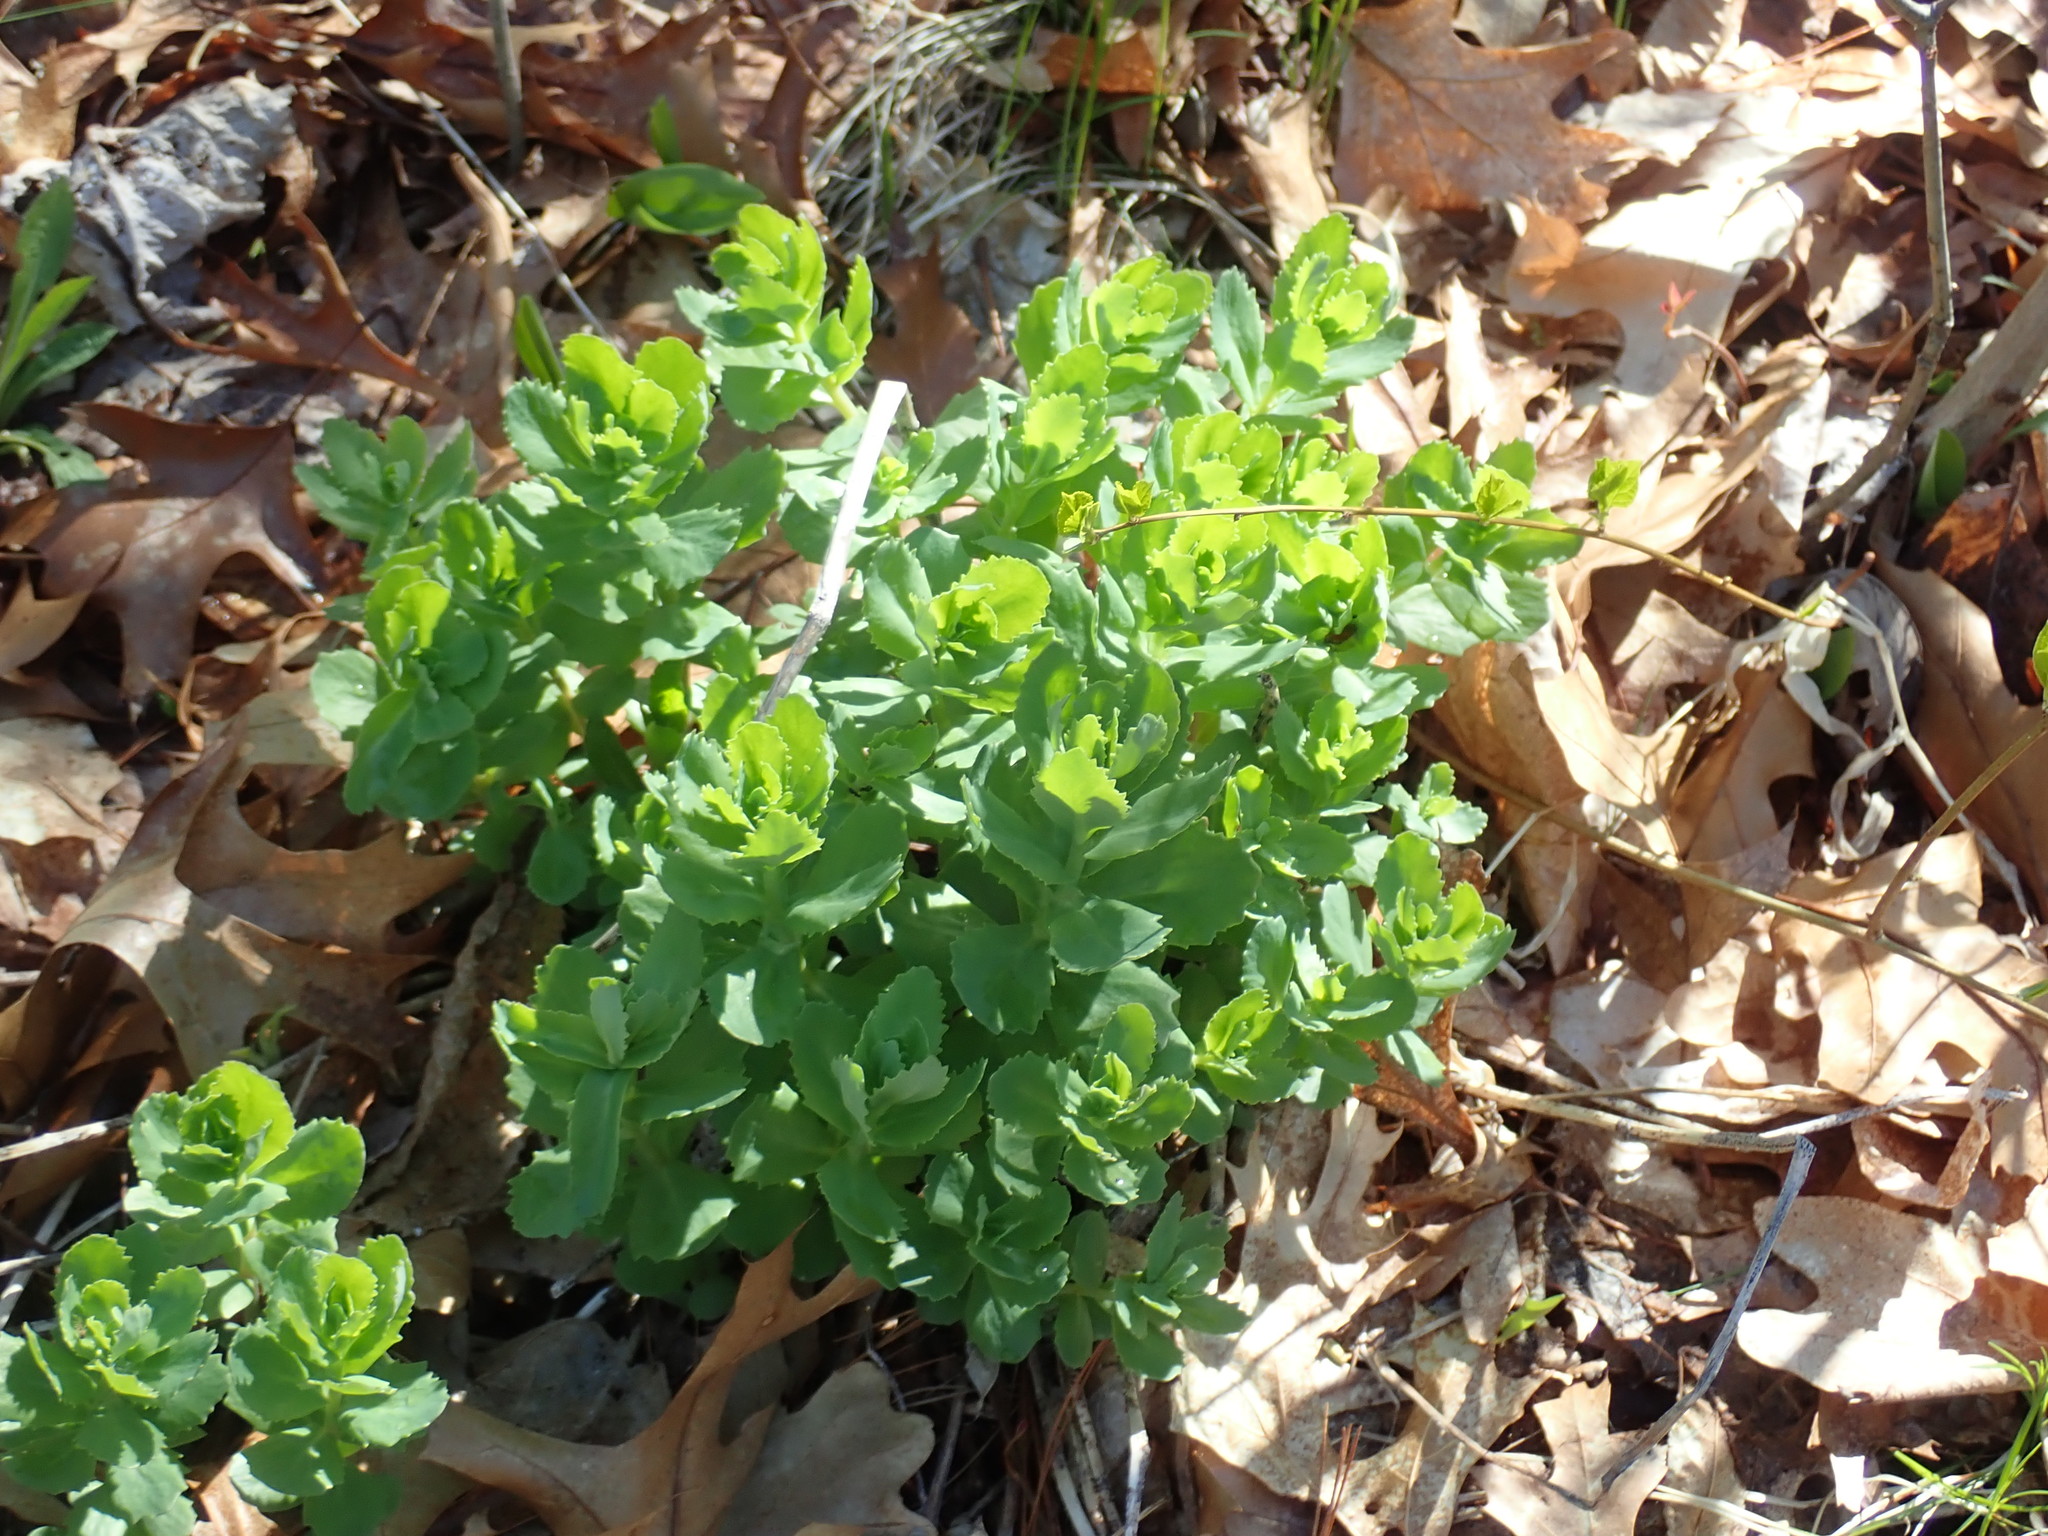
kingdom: Plantae
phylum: Tracheophyta
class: Magnoliopsida
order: Saxifragales
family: Crassulaceae
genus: Hylotelephium
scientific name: Hylotelephium telephium
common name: Live-forever
